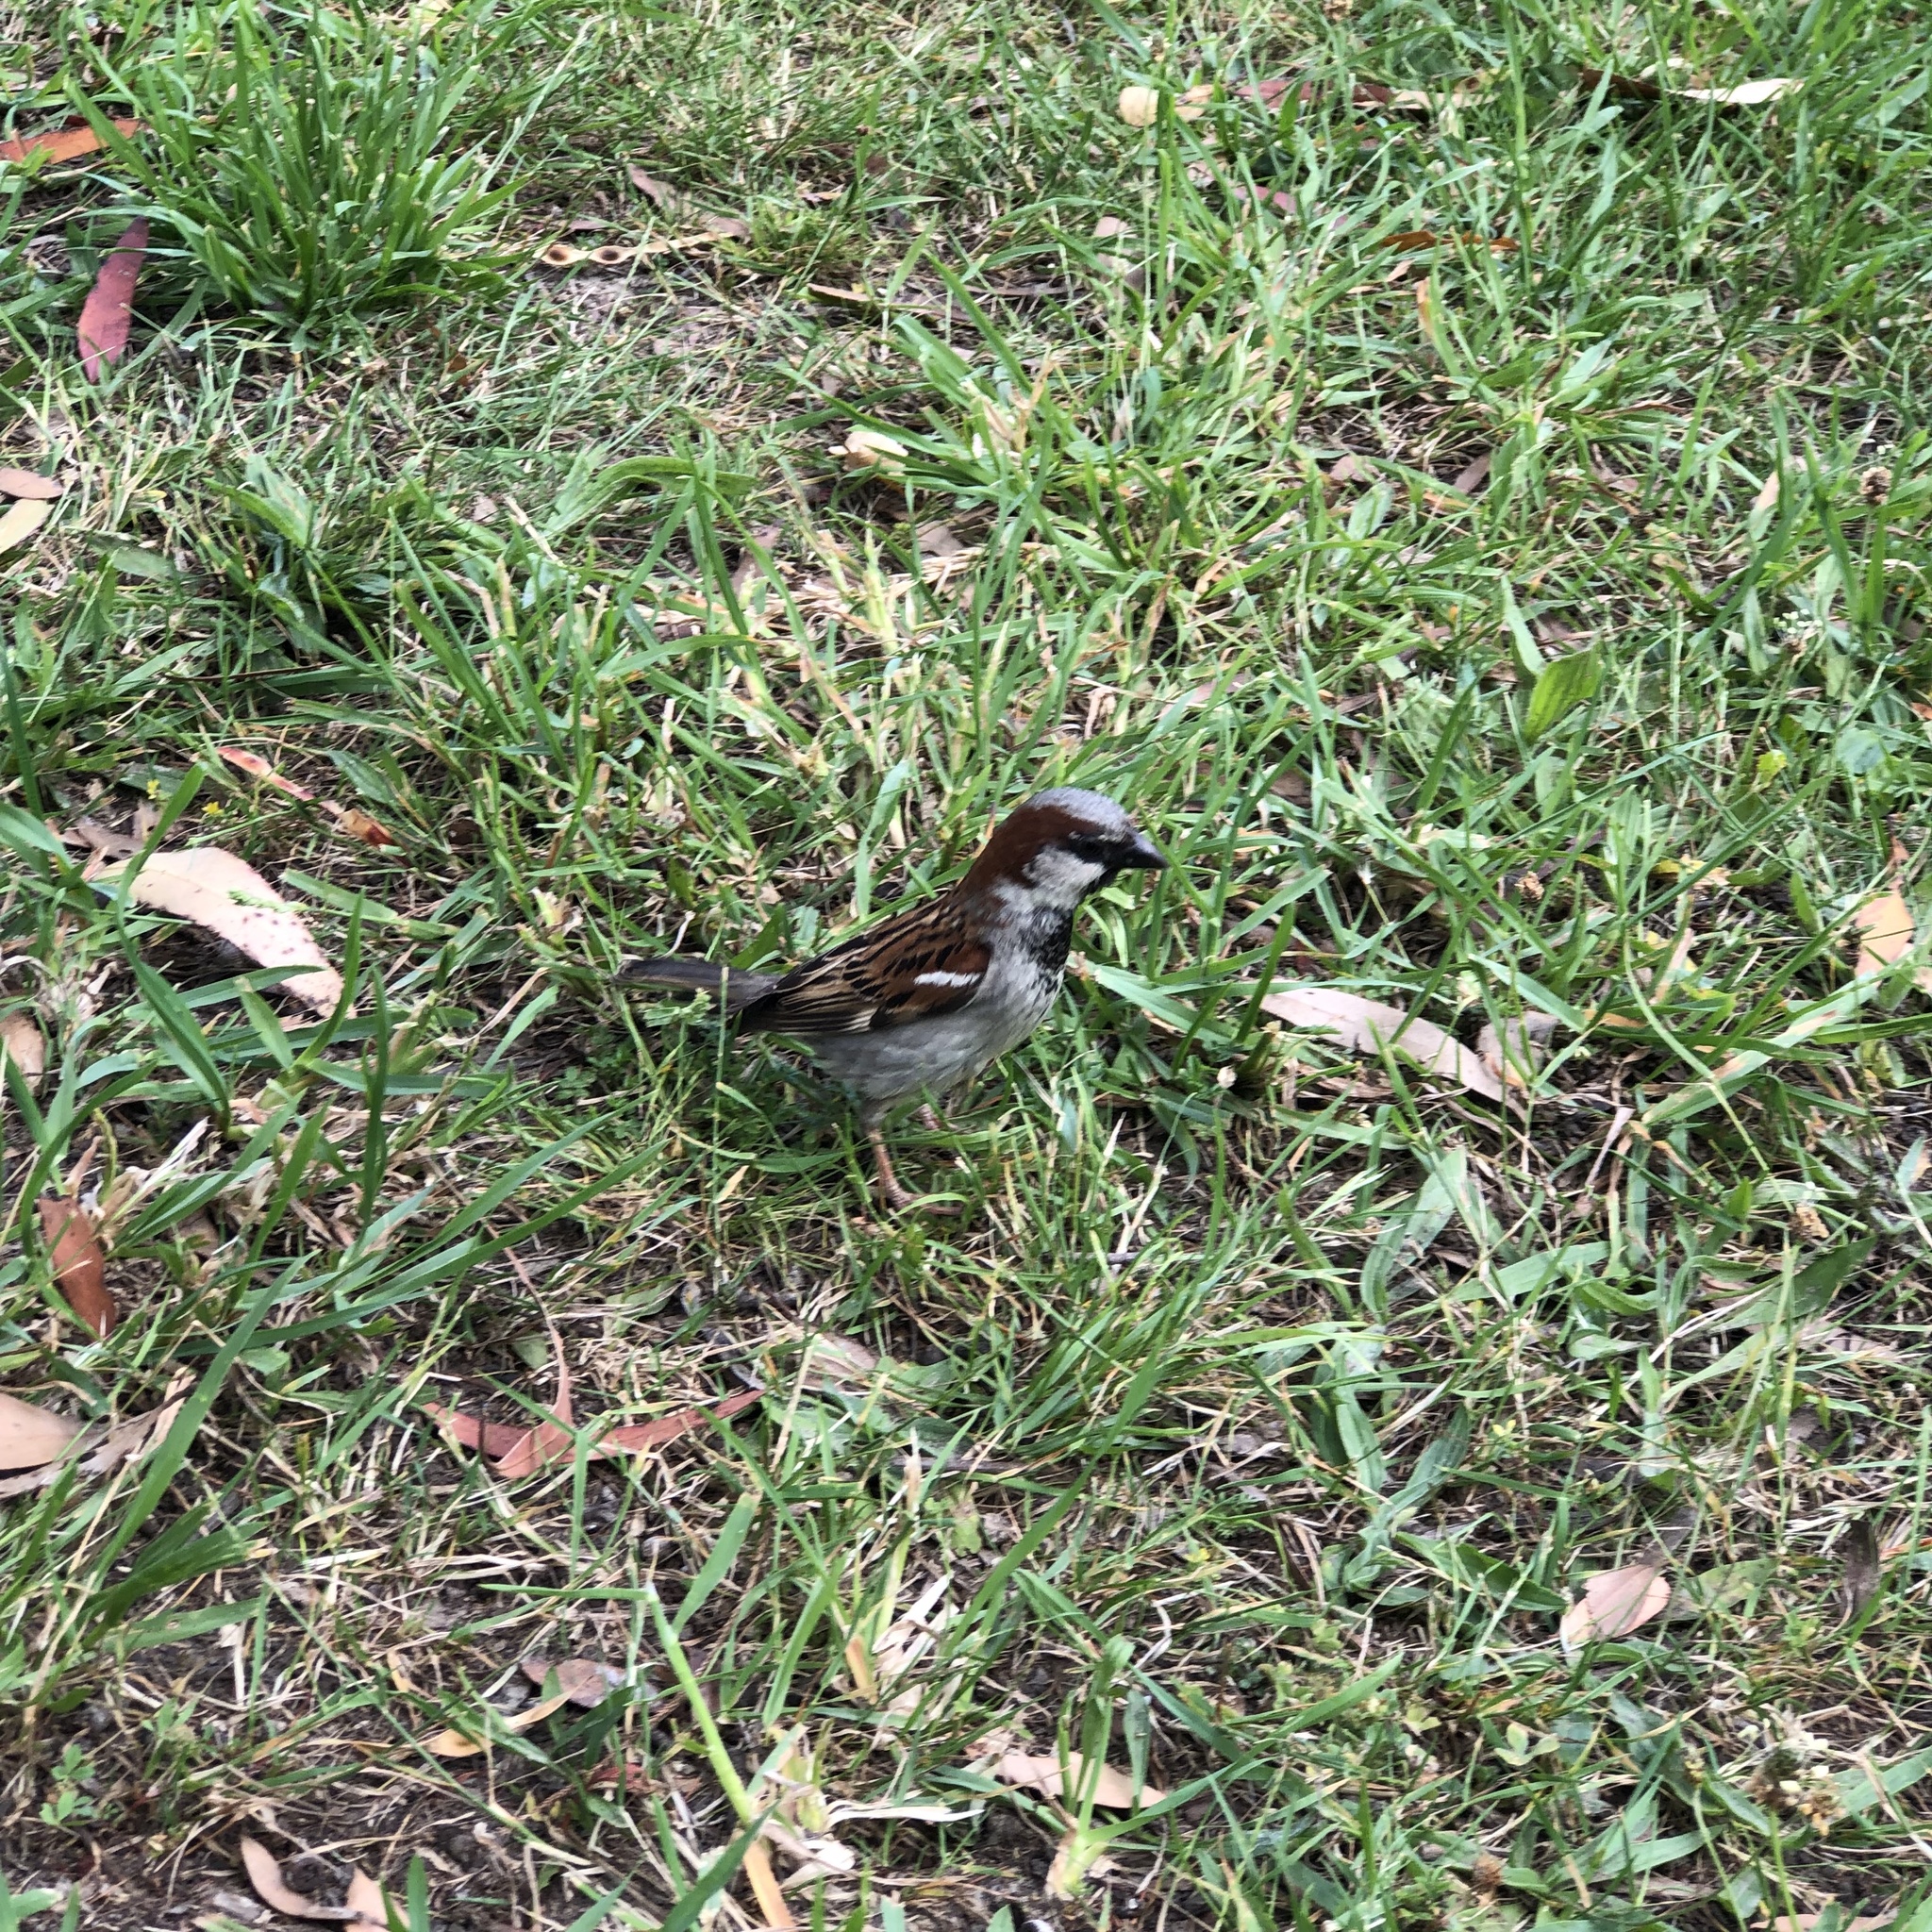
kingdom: Animalia
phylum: Chordata
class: Aves
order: Passeriformes
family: Passeridae
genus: Passer
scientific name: Passer domesticus
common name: House sparrow
